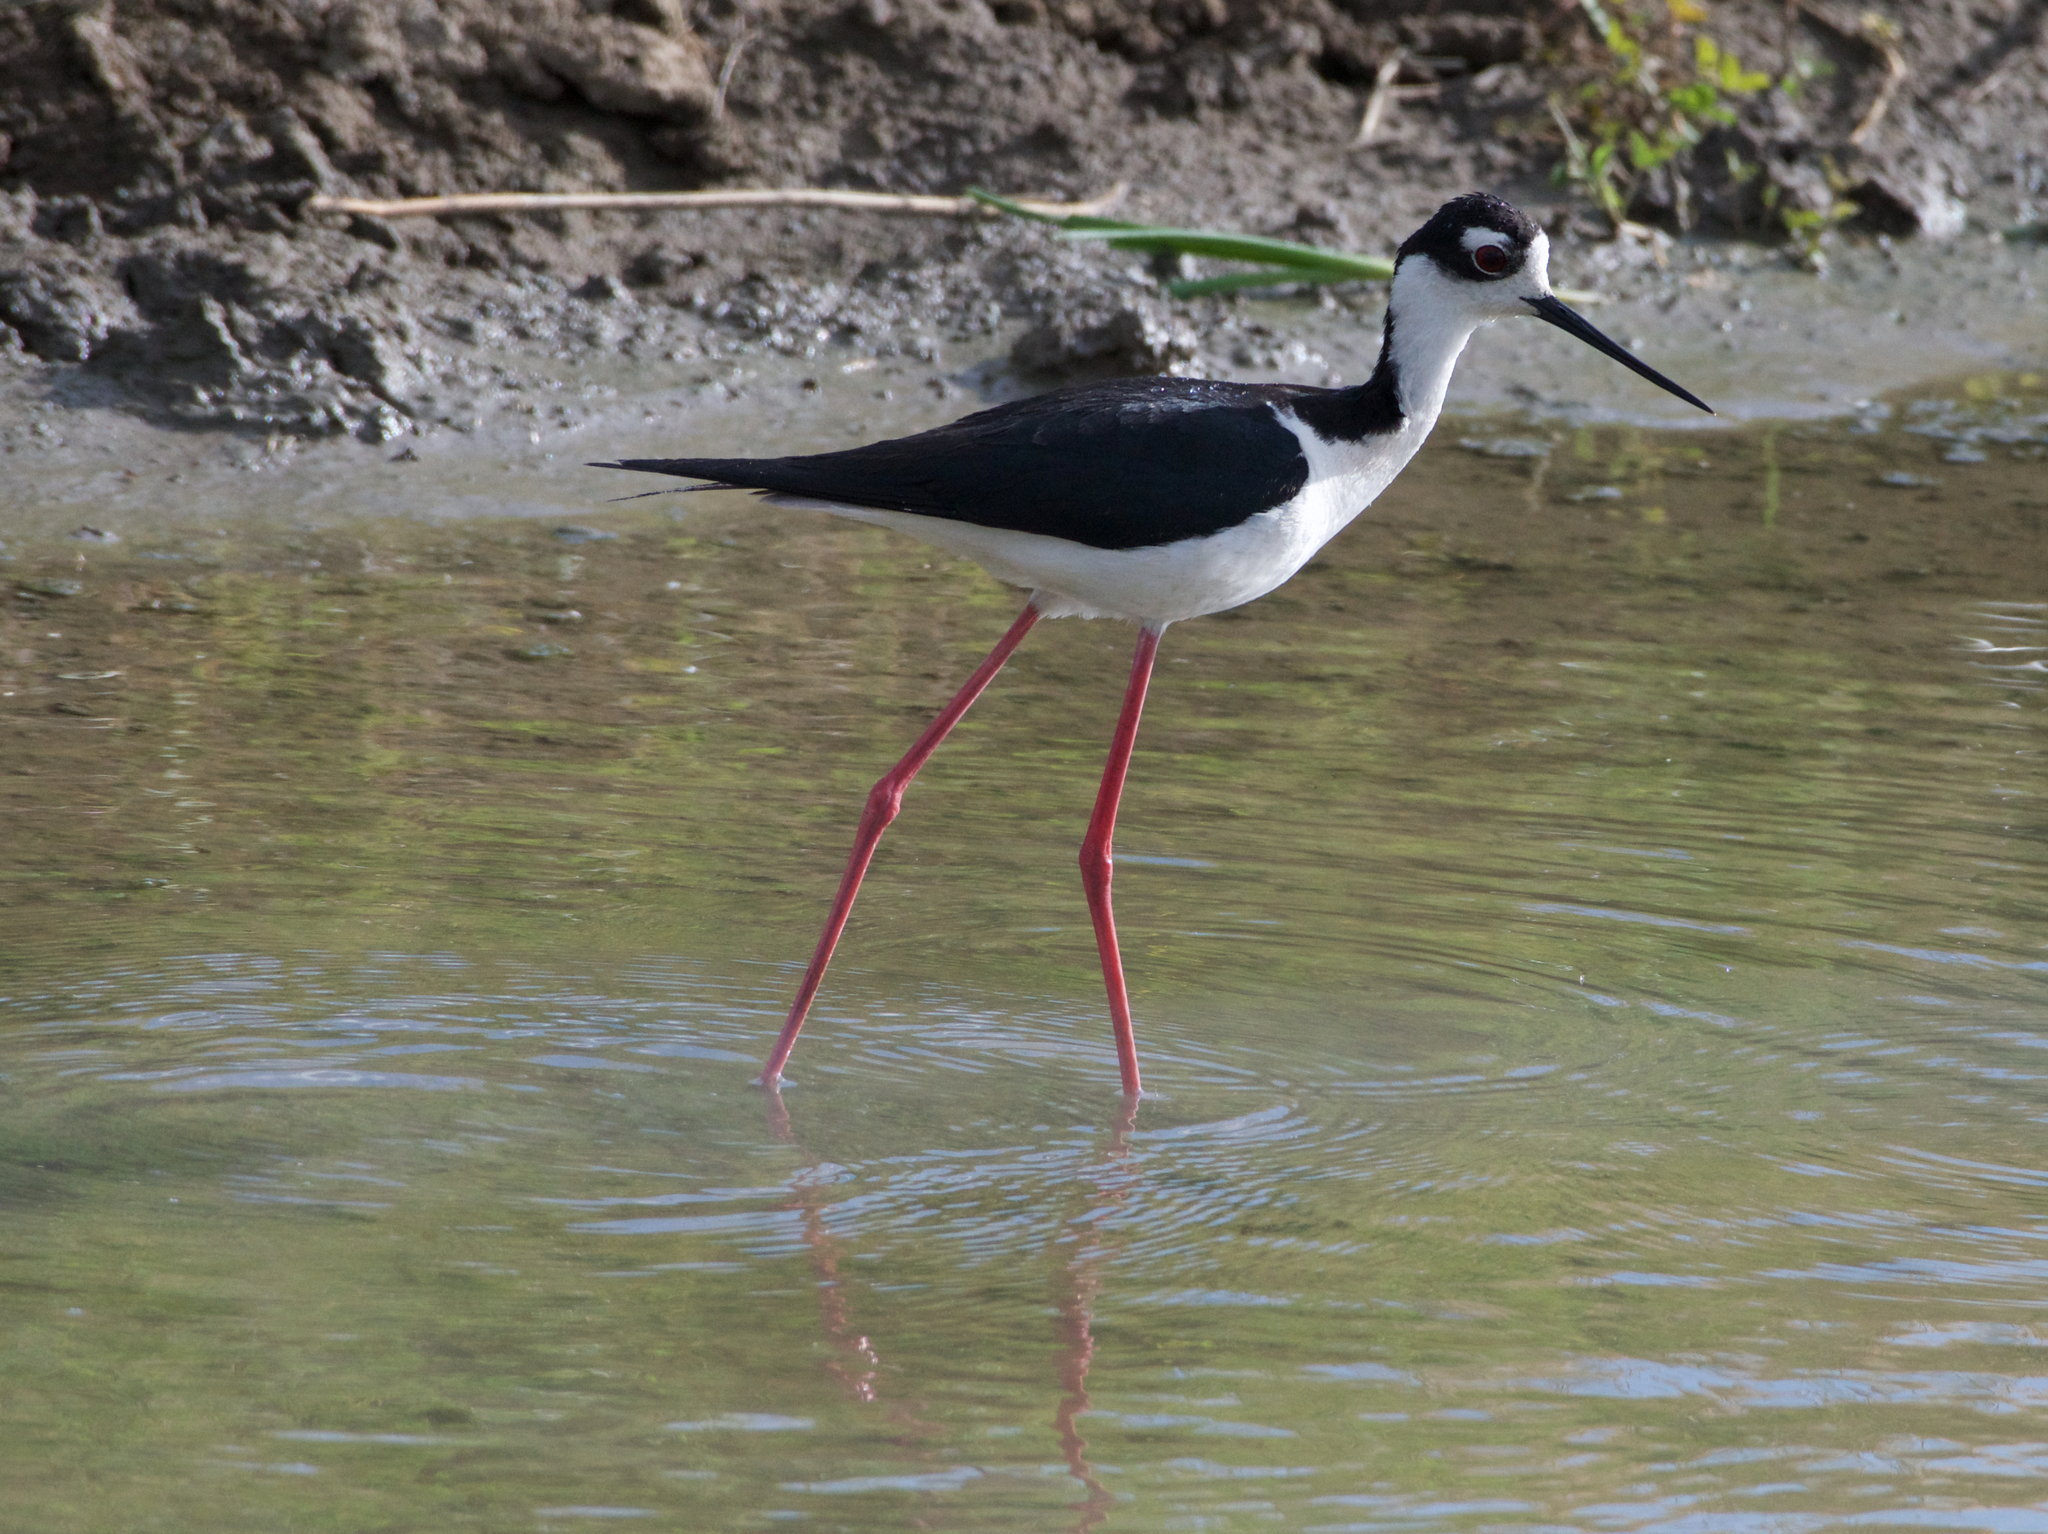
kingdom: Animalia
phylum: Chordata
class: Aves
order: Charadriiformes
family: Recurvirostridae
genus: Himantopus
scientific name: Himantopus mexicanus
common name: Black-necked stilt
